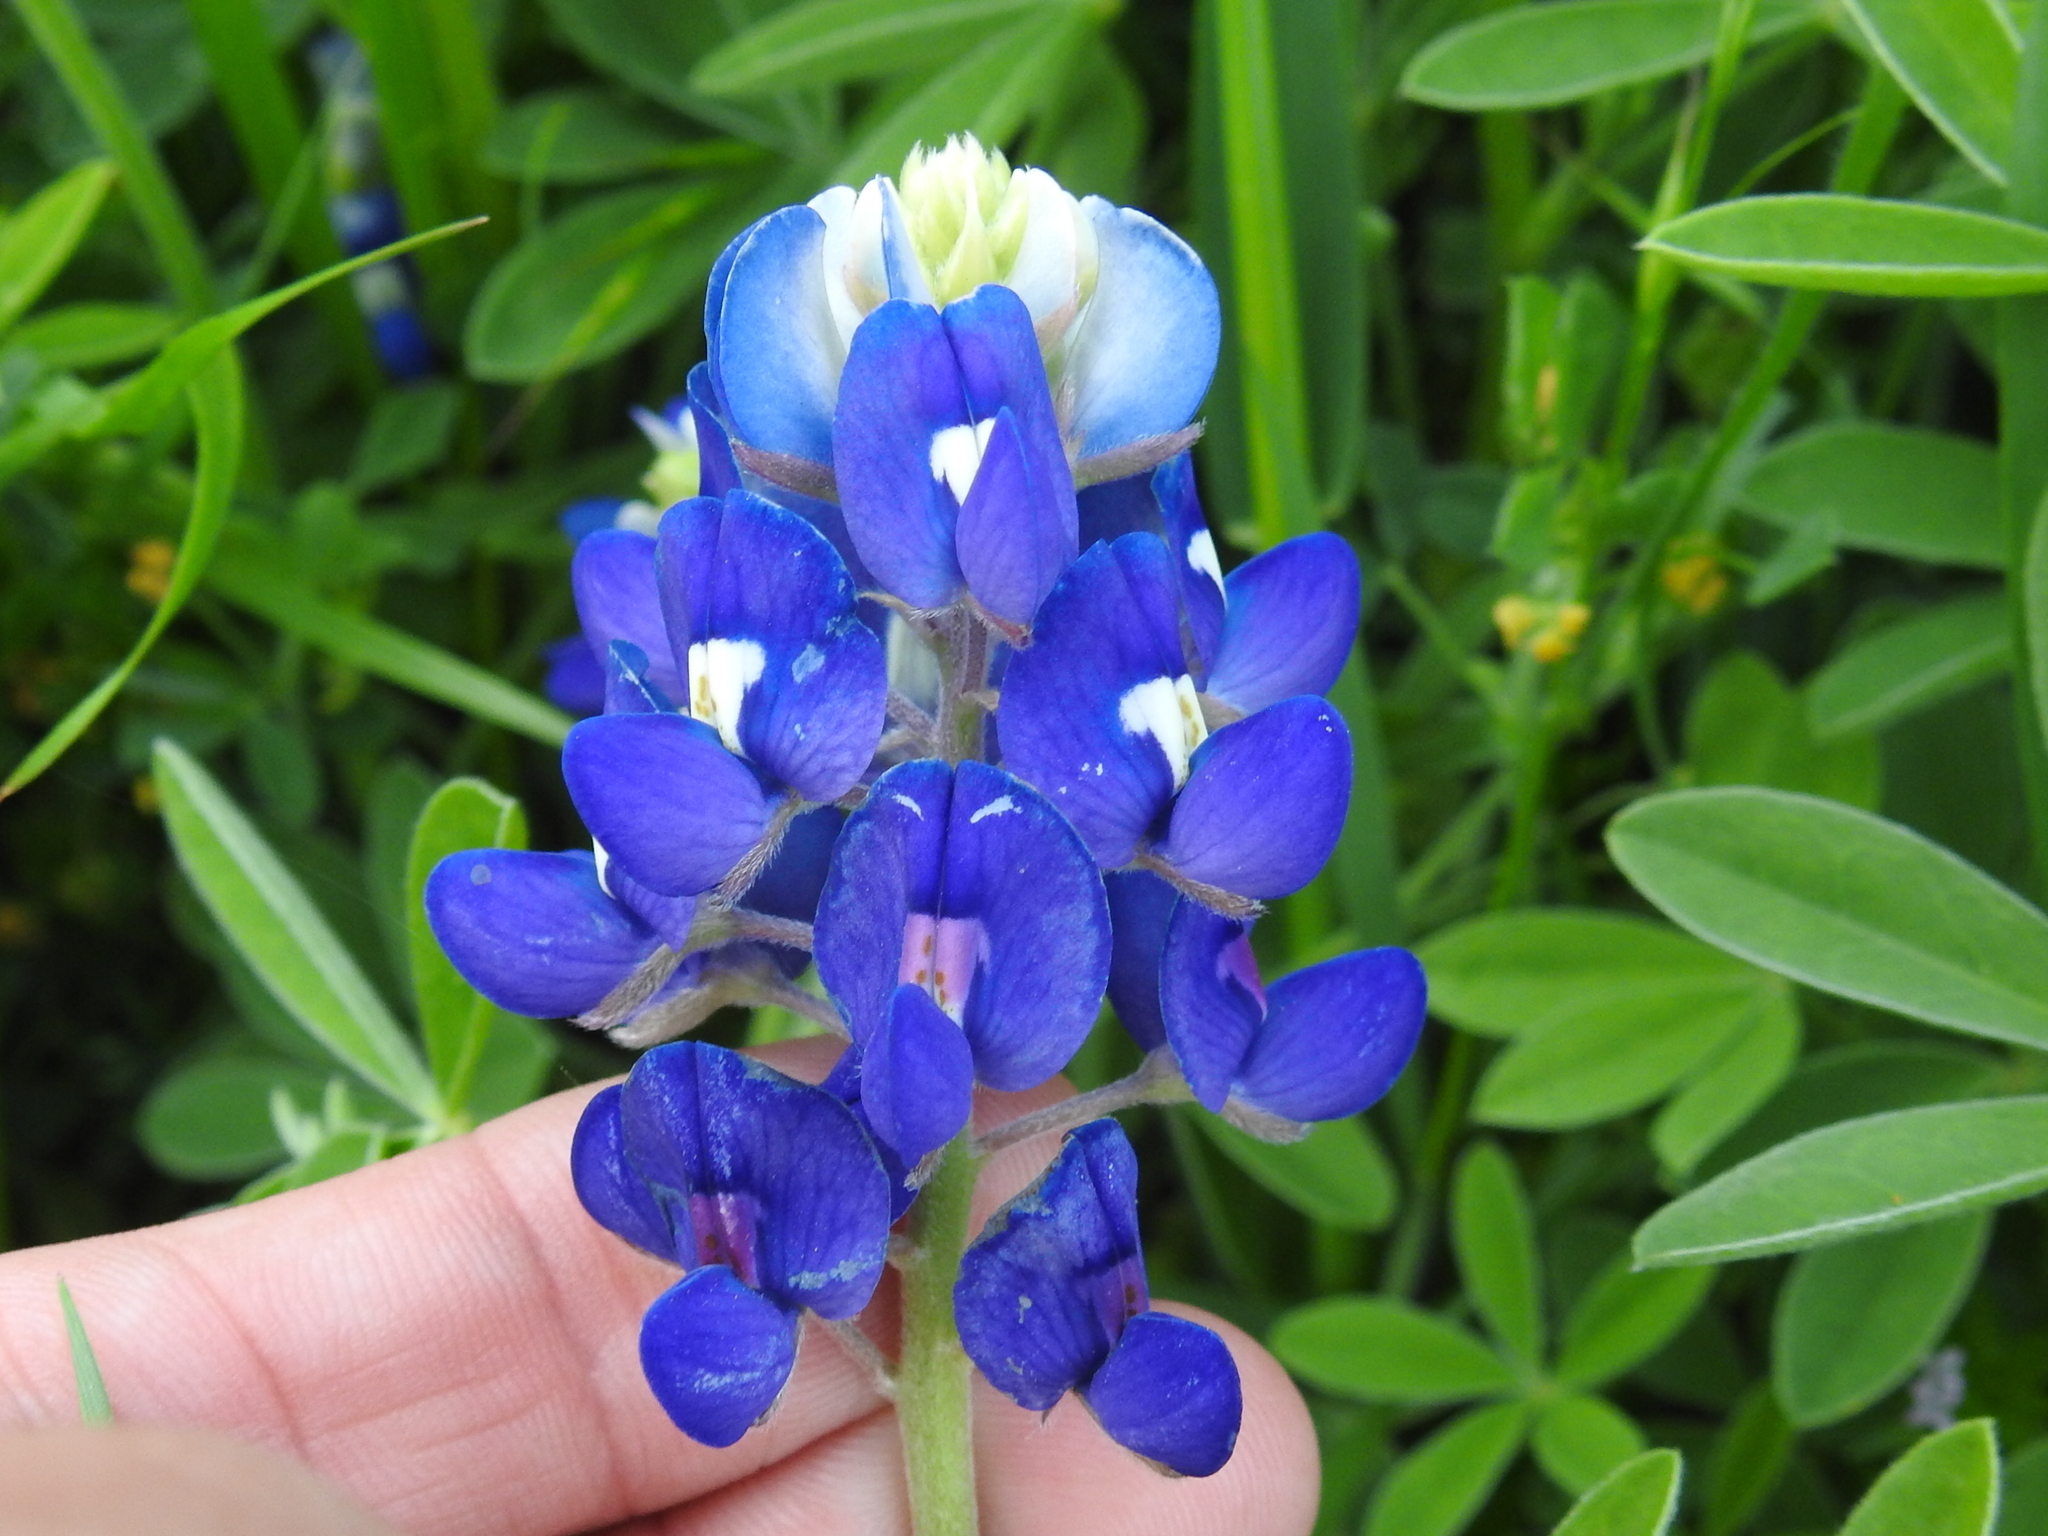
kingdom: Plantae
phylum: Tracheophyta
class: Magnoliopsida
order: Fabales
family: Fabaceae
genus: Lupinus
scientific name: Lupinus texensis
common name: Texas bluebonnet
